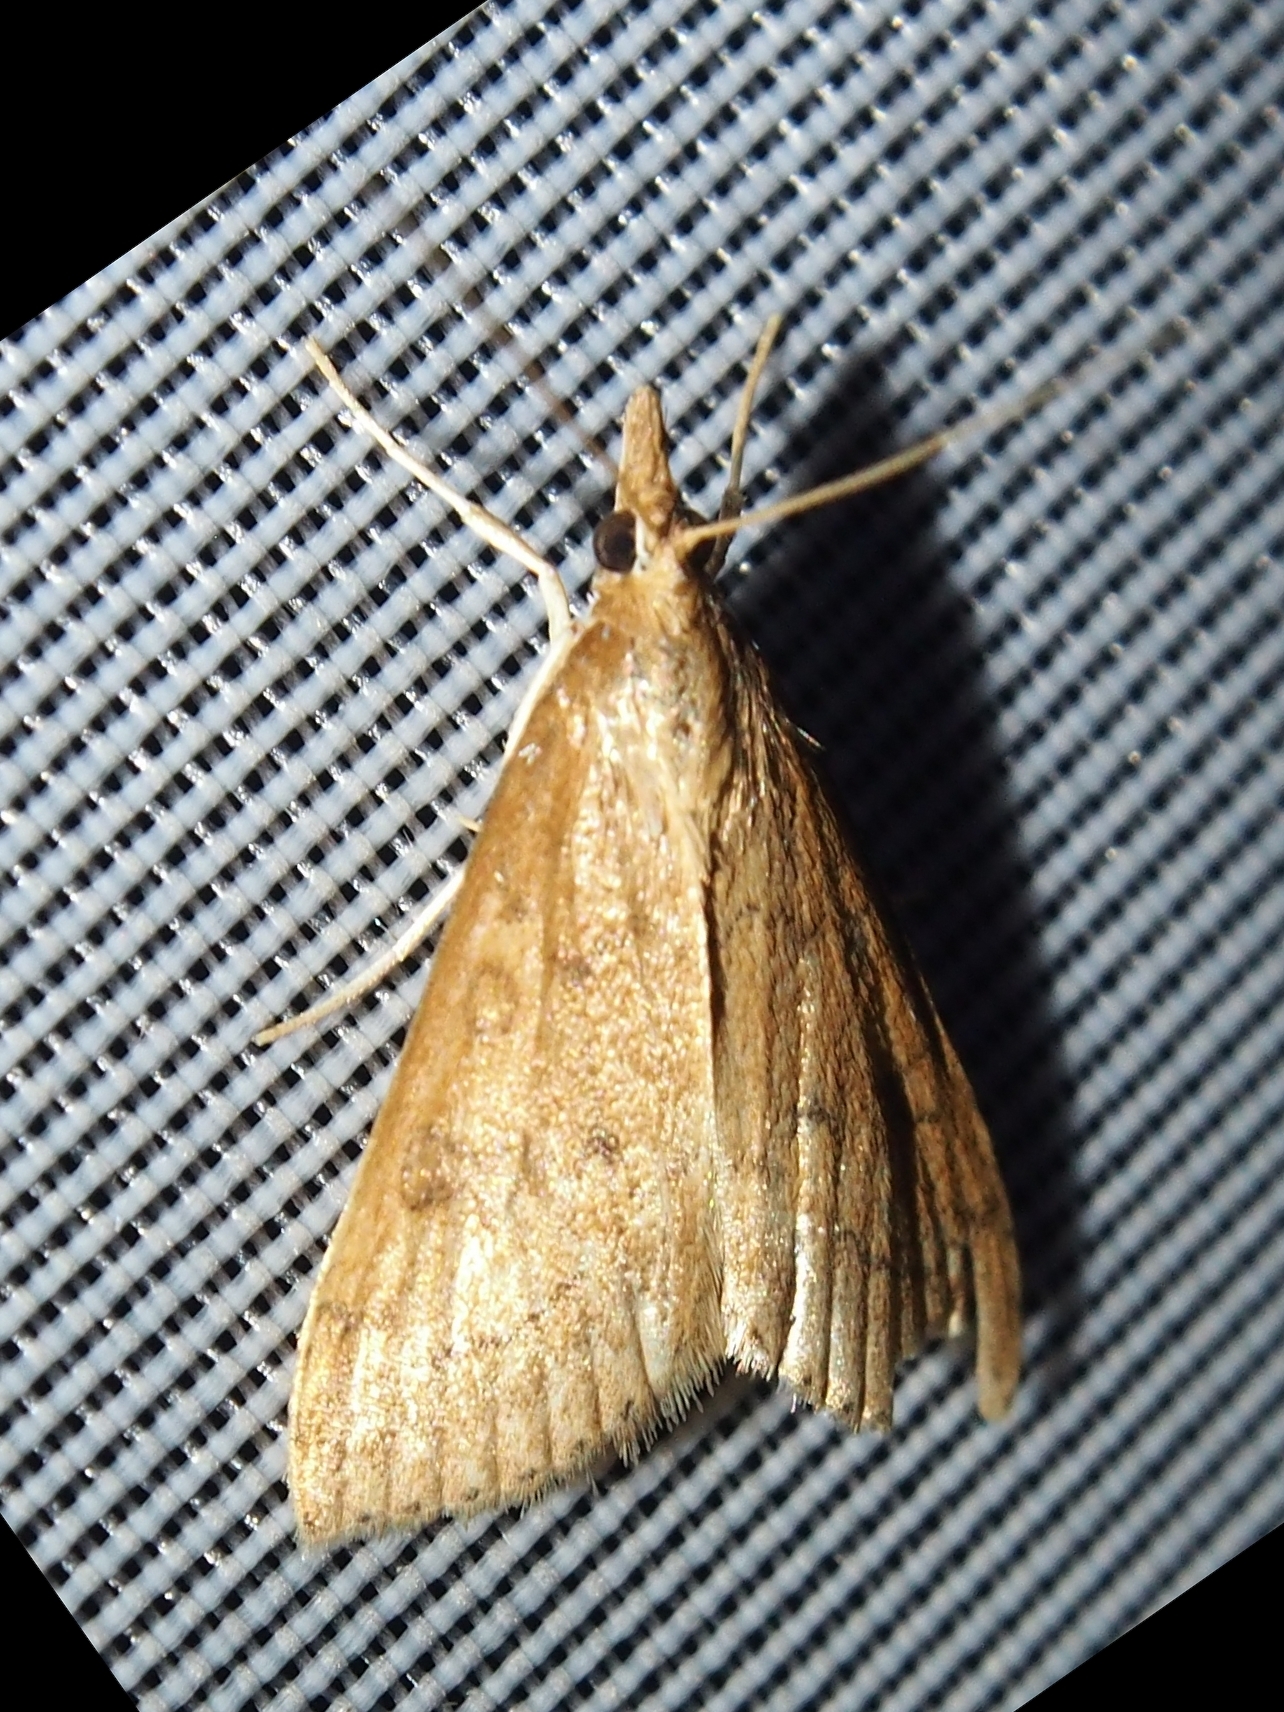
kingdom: Animalia
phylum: Arthropoda
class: Insecta
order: Lepidoptera
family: Crambidae
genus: Udea
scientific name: Udea rubigalis
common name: Celery leaftier moth
